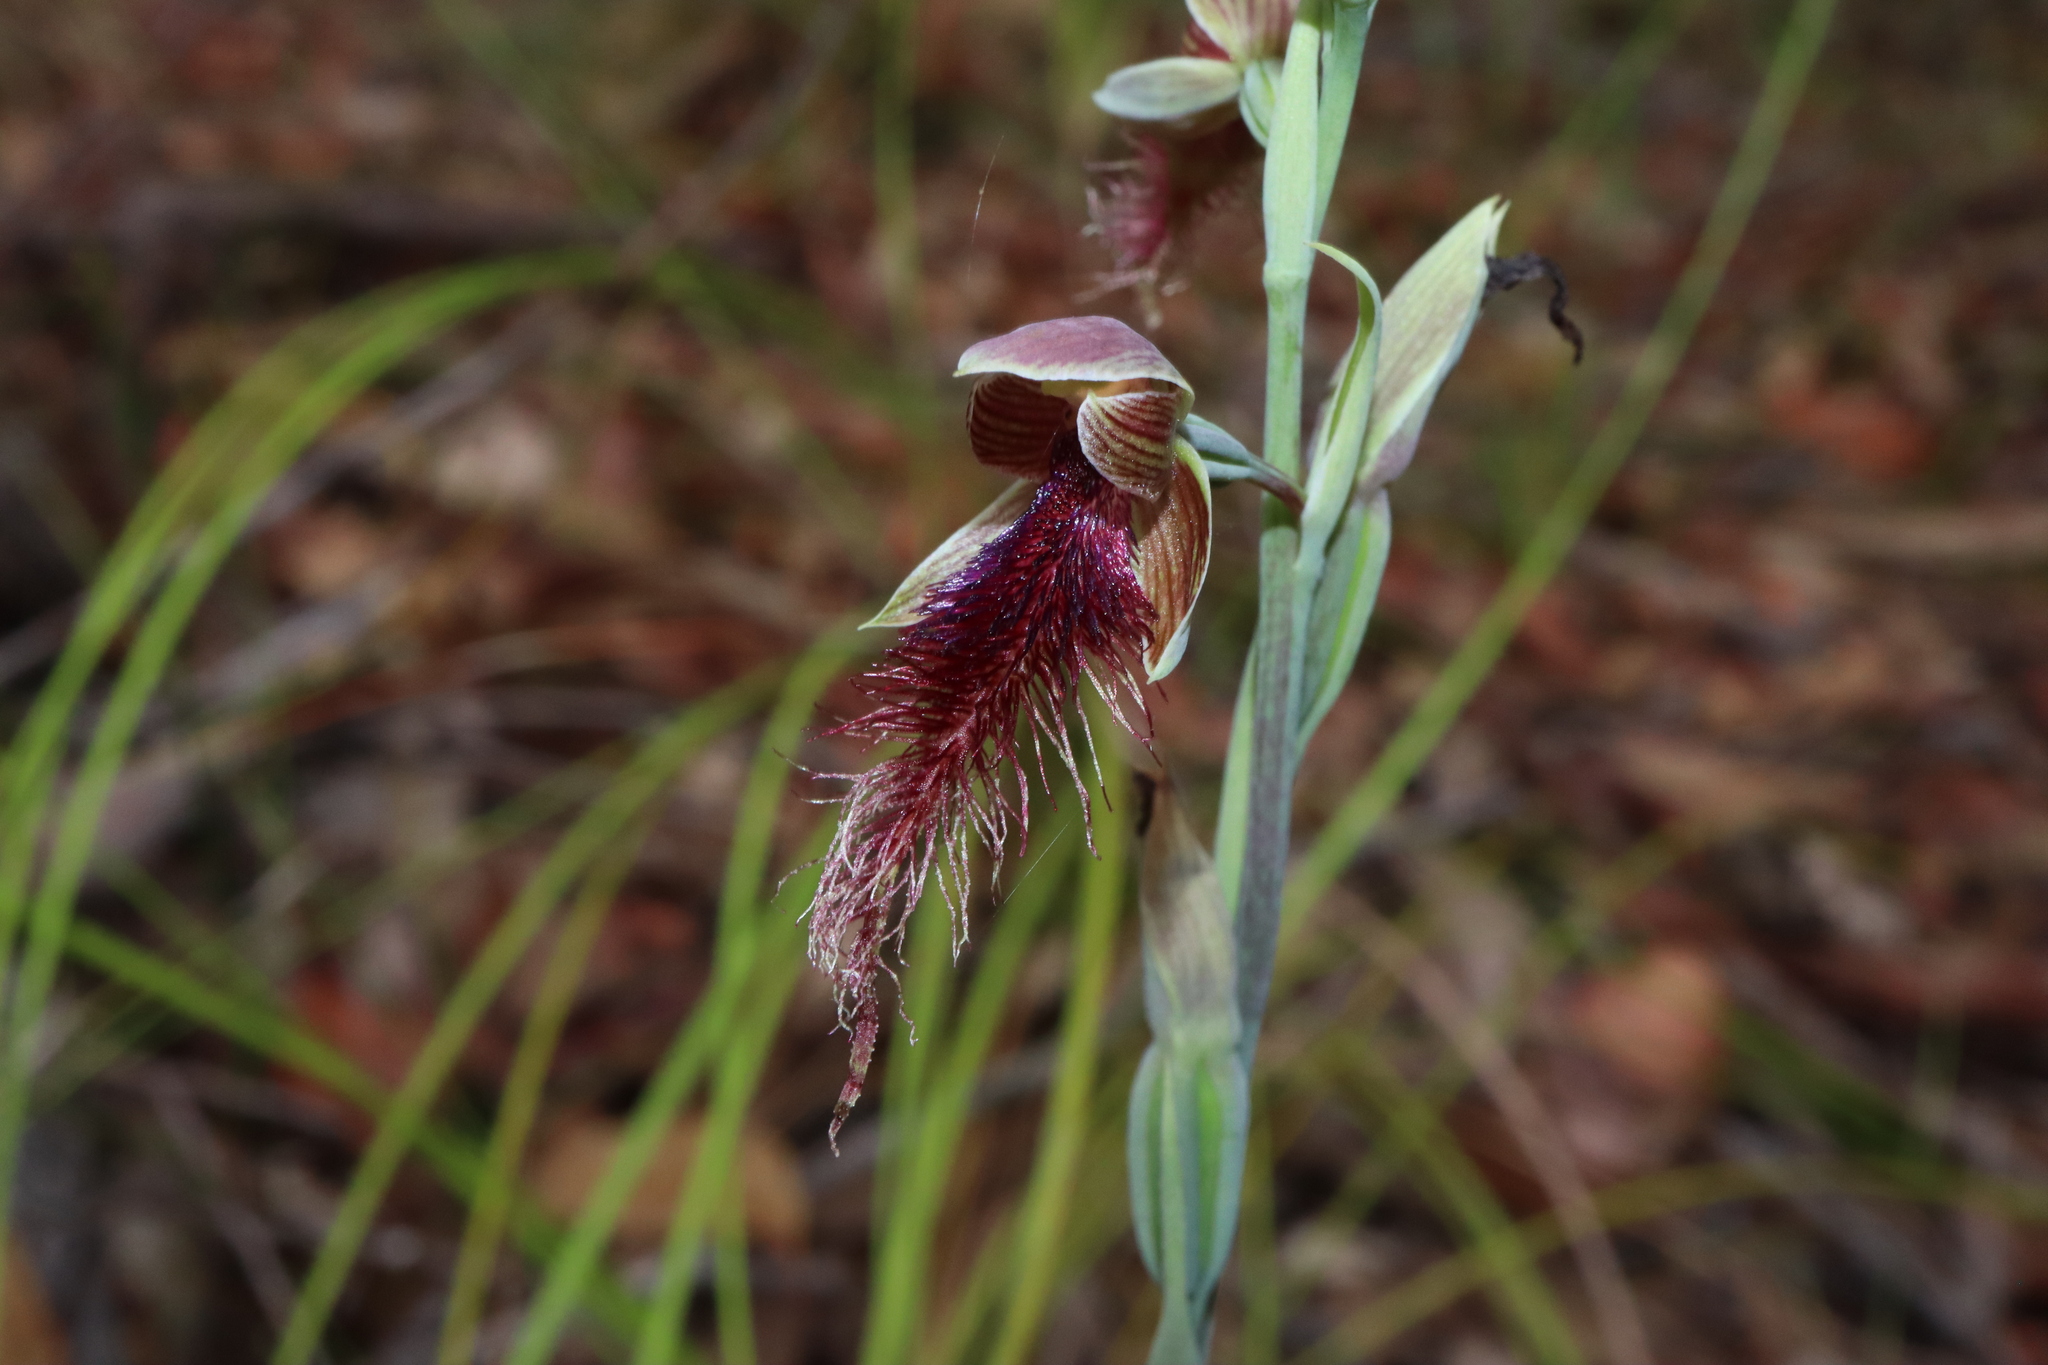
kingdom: Plantae
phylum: Tracheophyta
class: Liliopsida
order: Asparagales
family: Orchidaceae
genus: Calochilus
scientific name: Calochilus gracillimus
